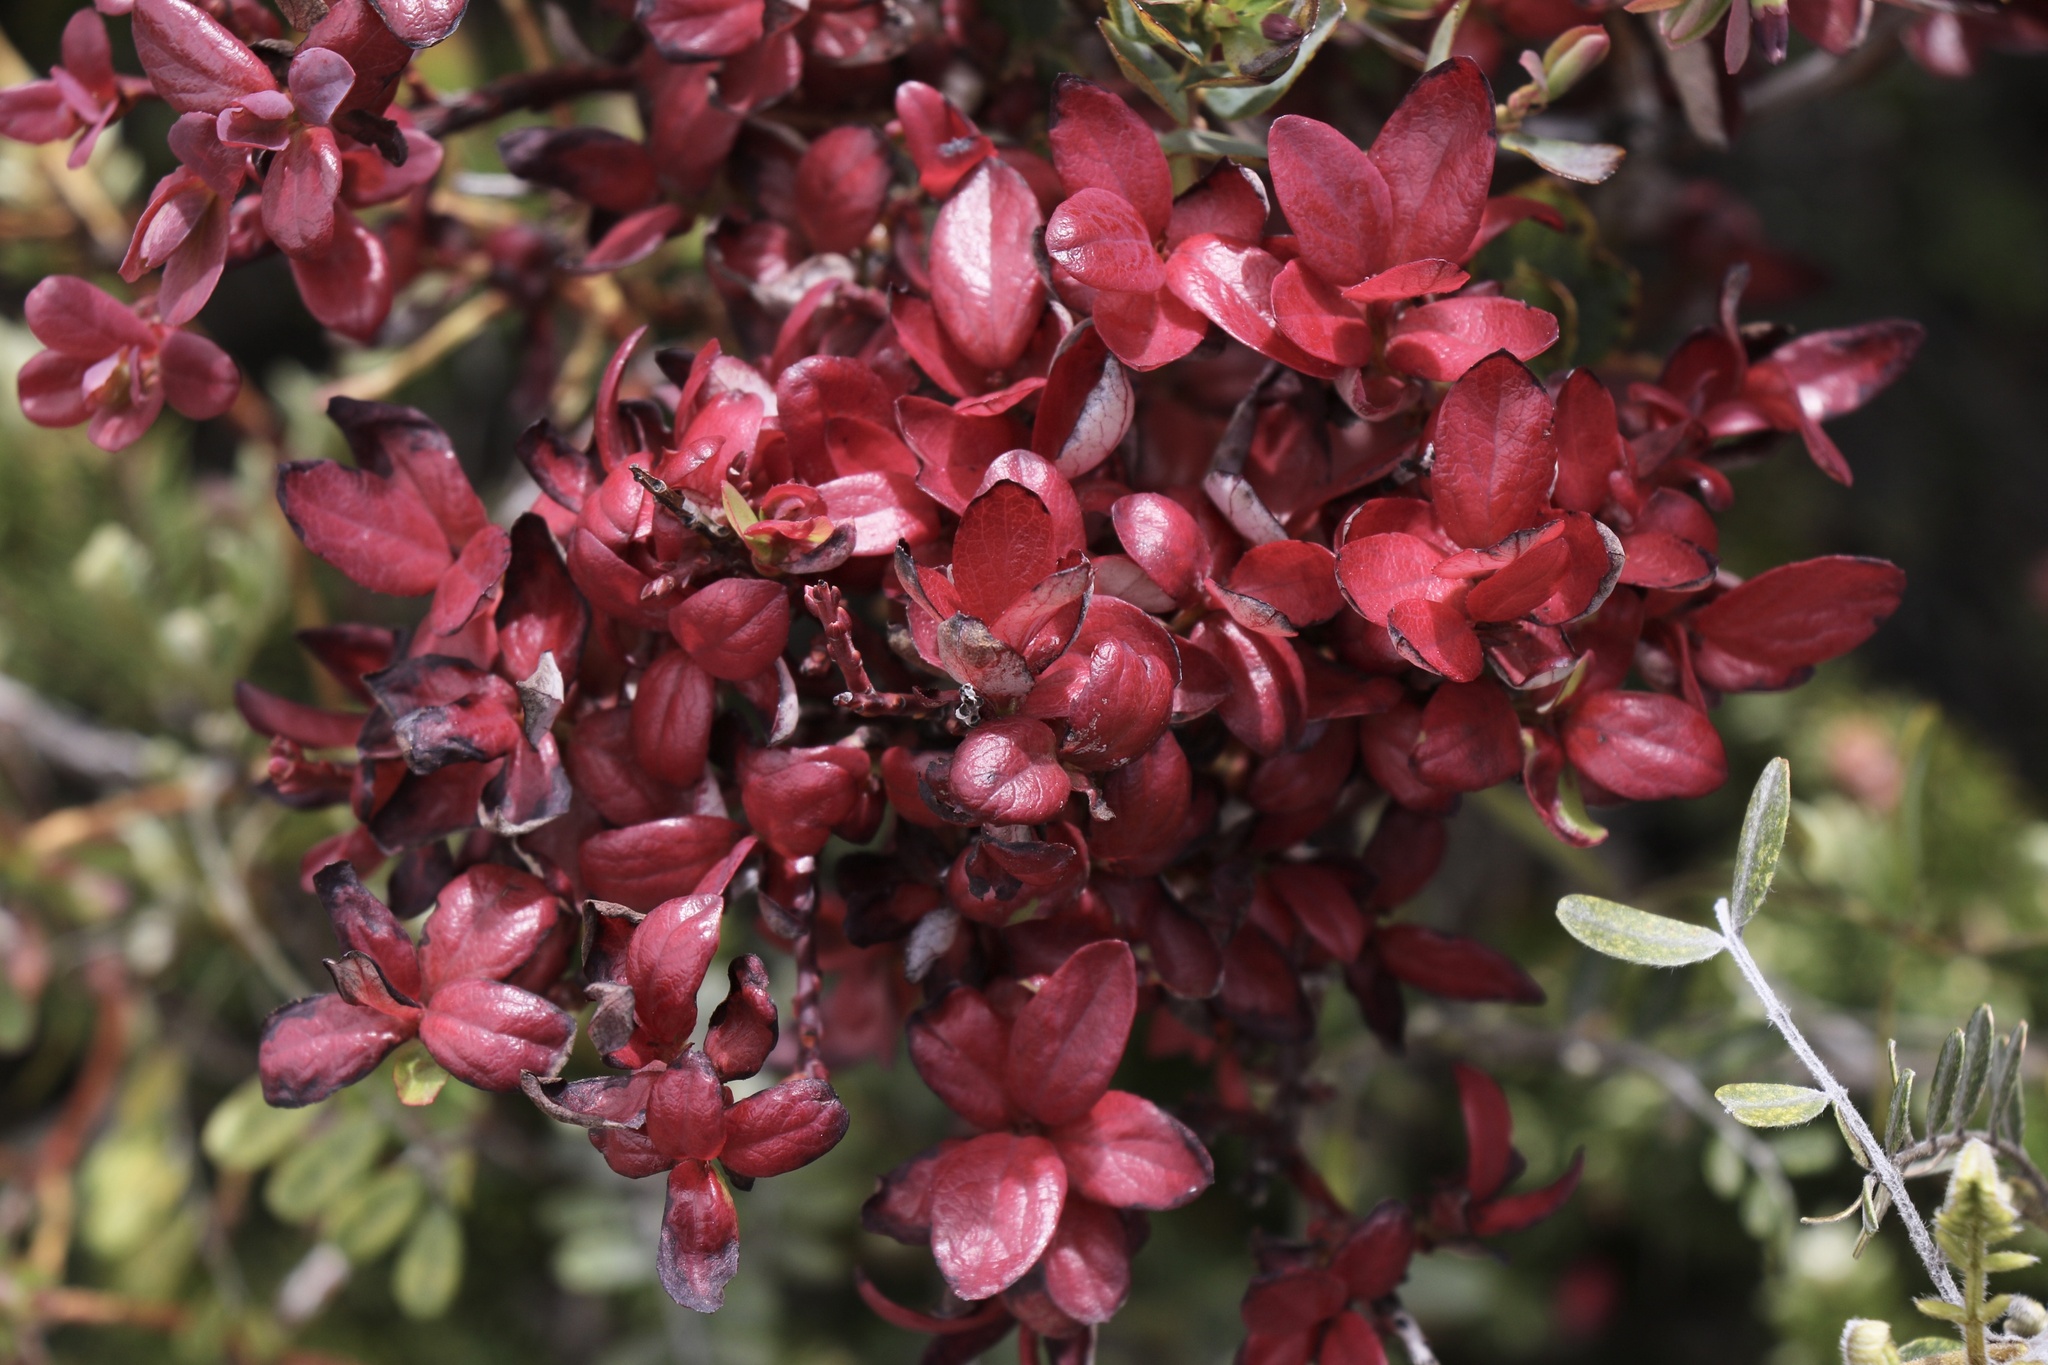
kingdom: Fungi
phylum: Basidiomycota
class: Exobasidiomycetes
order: Exobasidiales
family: Exobasidiaceae
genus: Exobasidium
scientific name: Exobasidium darwinii
